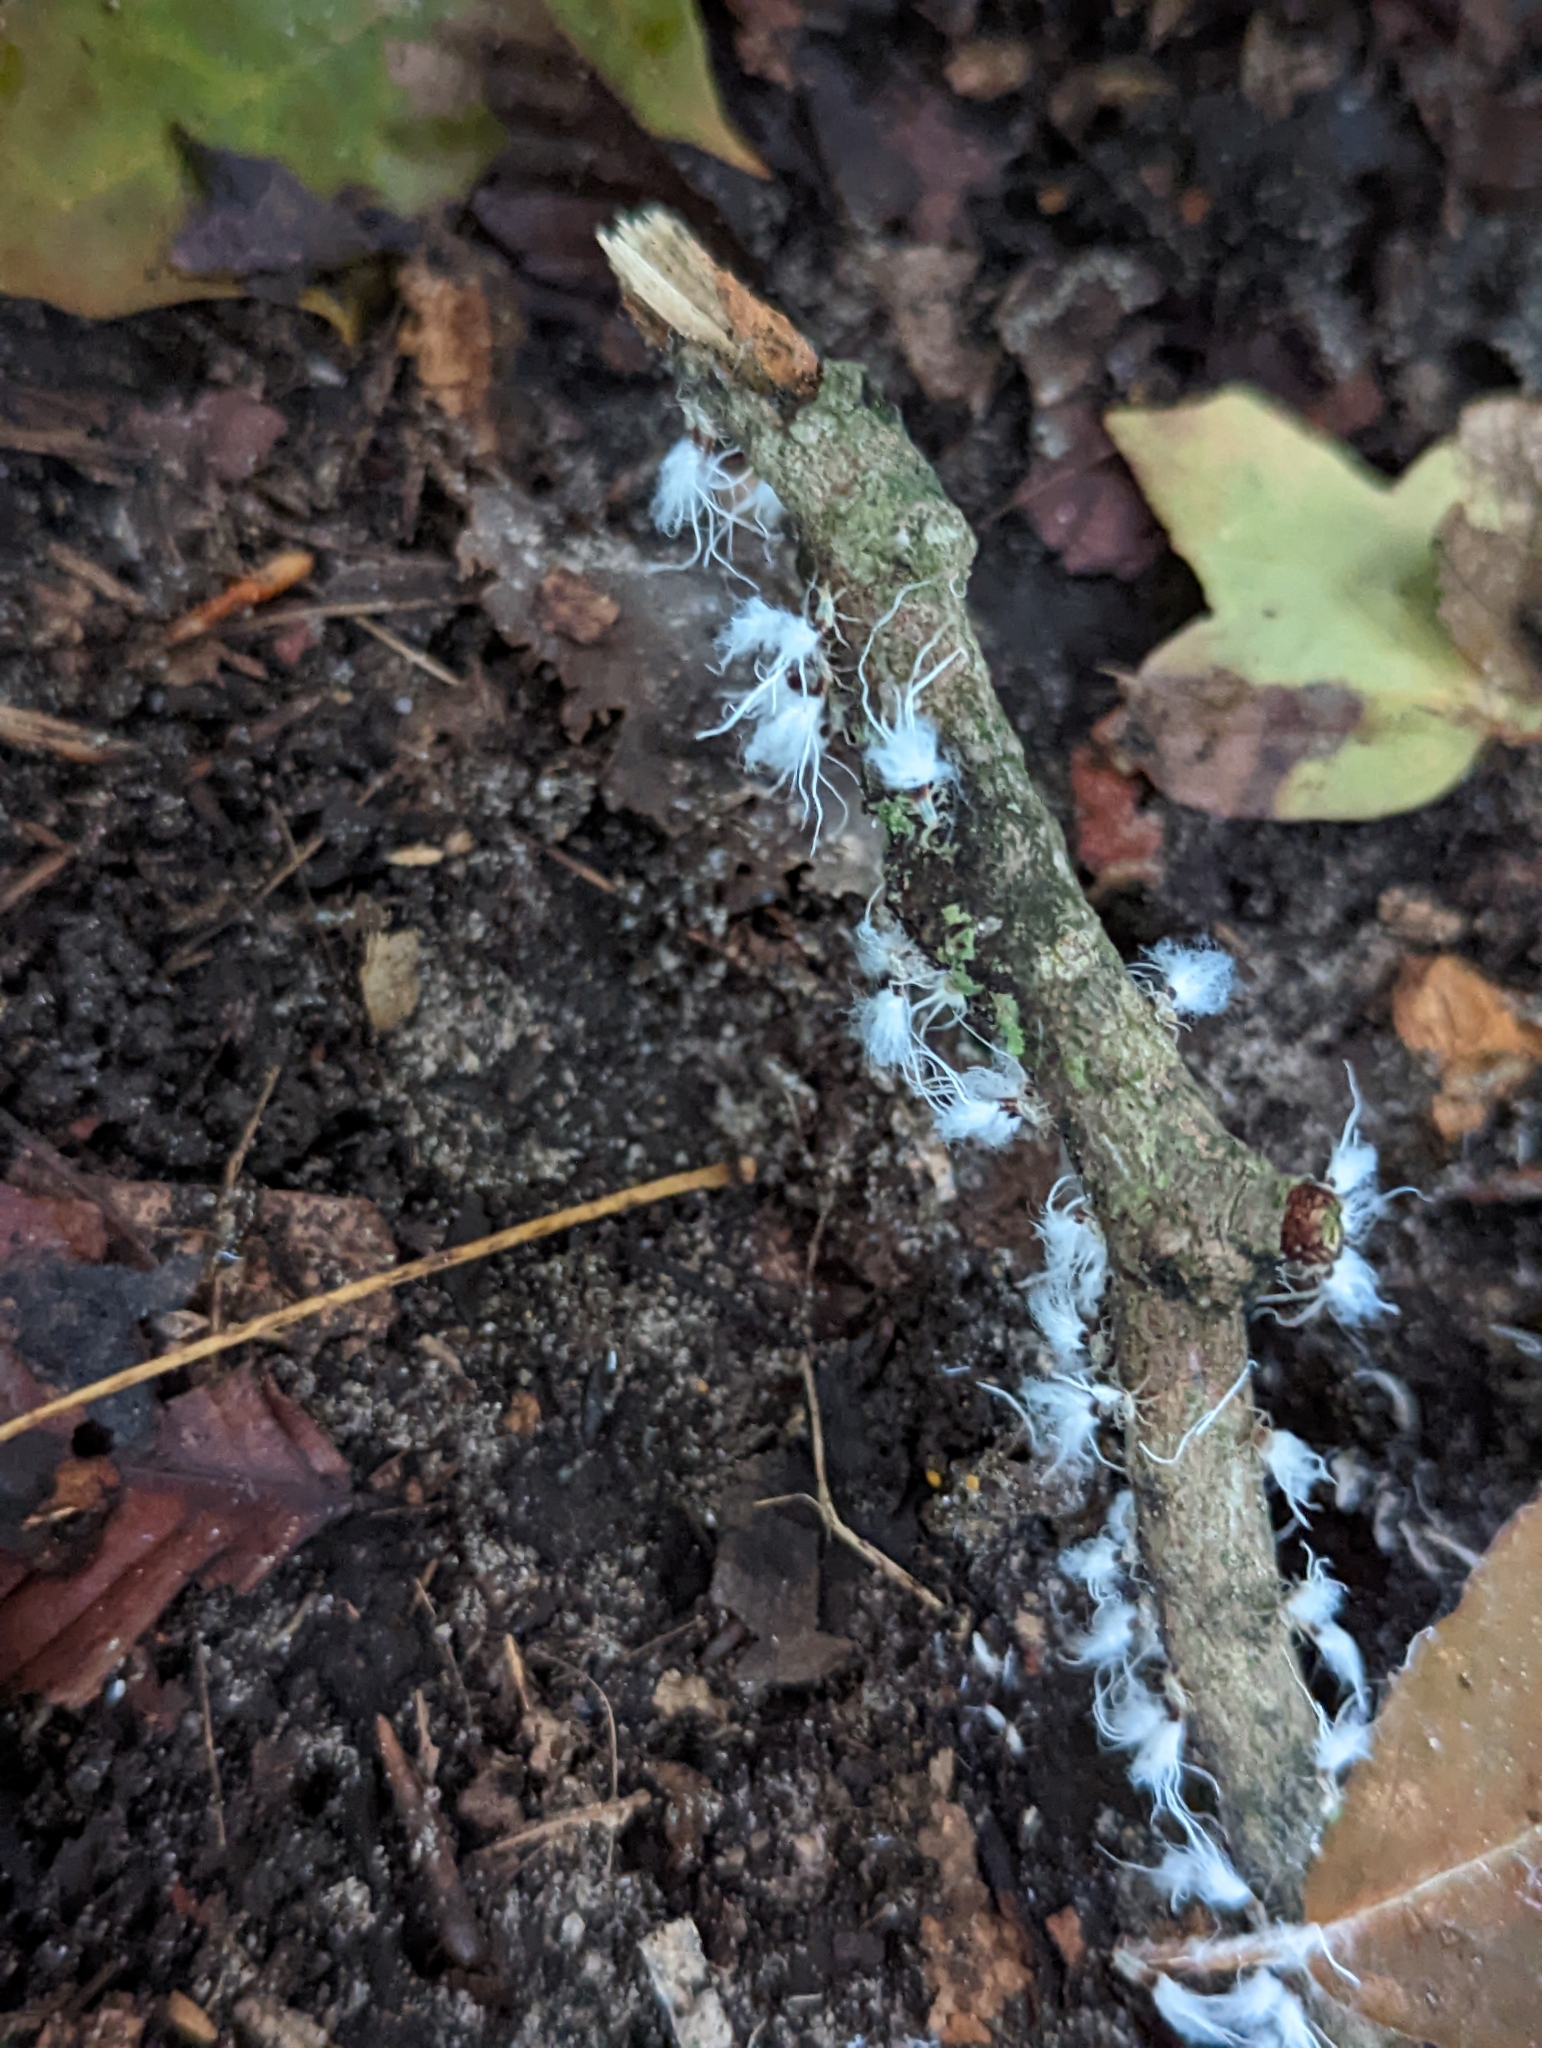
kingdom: Animalia
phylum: Arthropoda
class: Insecta
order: Hemiptera
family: Aphididae
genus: Grylloprociphilus
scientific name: Grylloprociphilus imbricator
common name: Beech blight aphid
